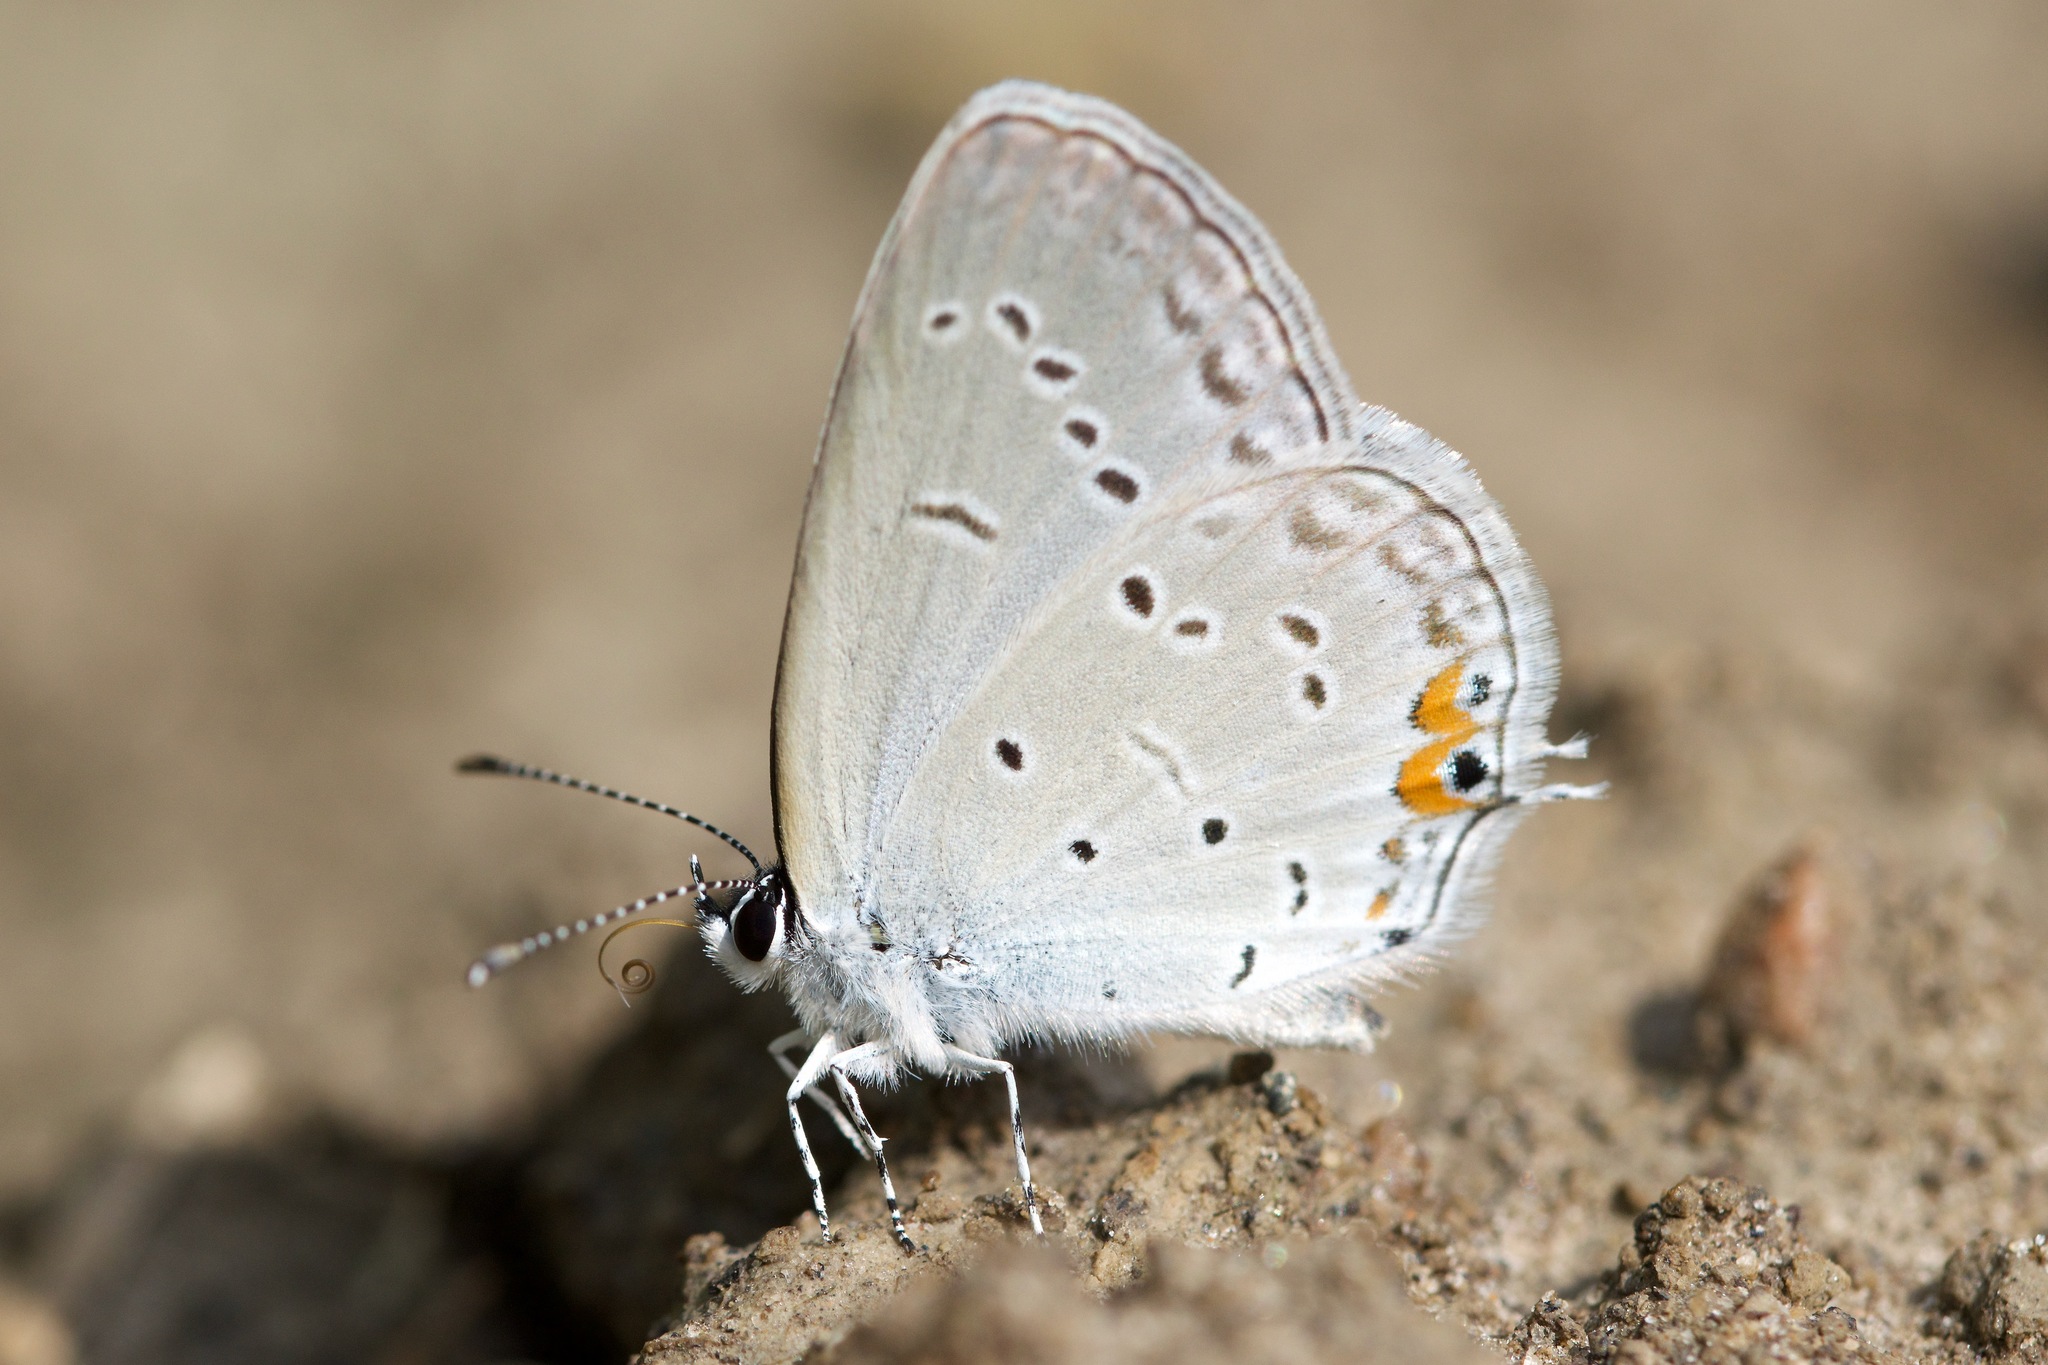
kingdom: Animalia
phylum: Arthropoda
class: Insecta
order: Lepidoptera
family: Lycaenidae
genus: Elkalyce
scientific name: Elkalyce comyntas
